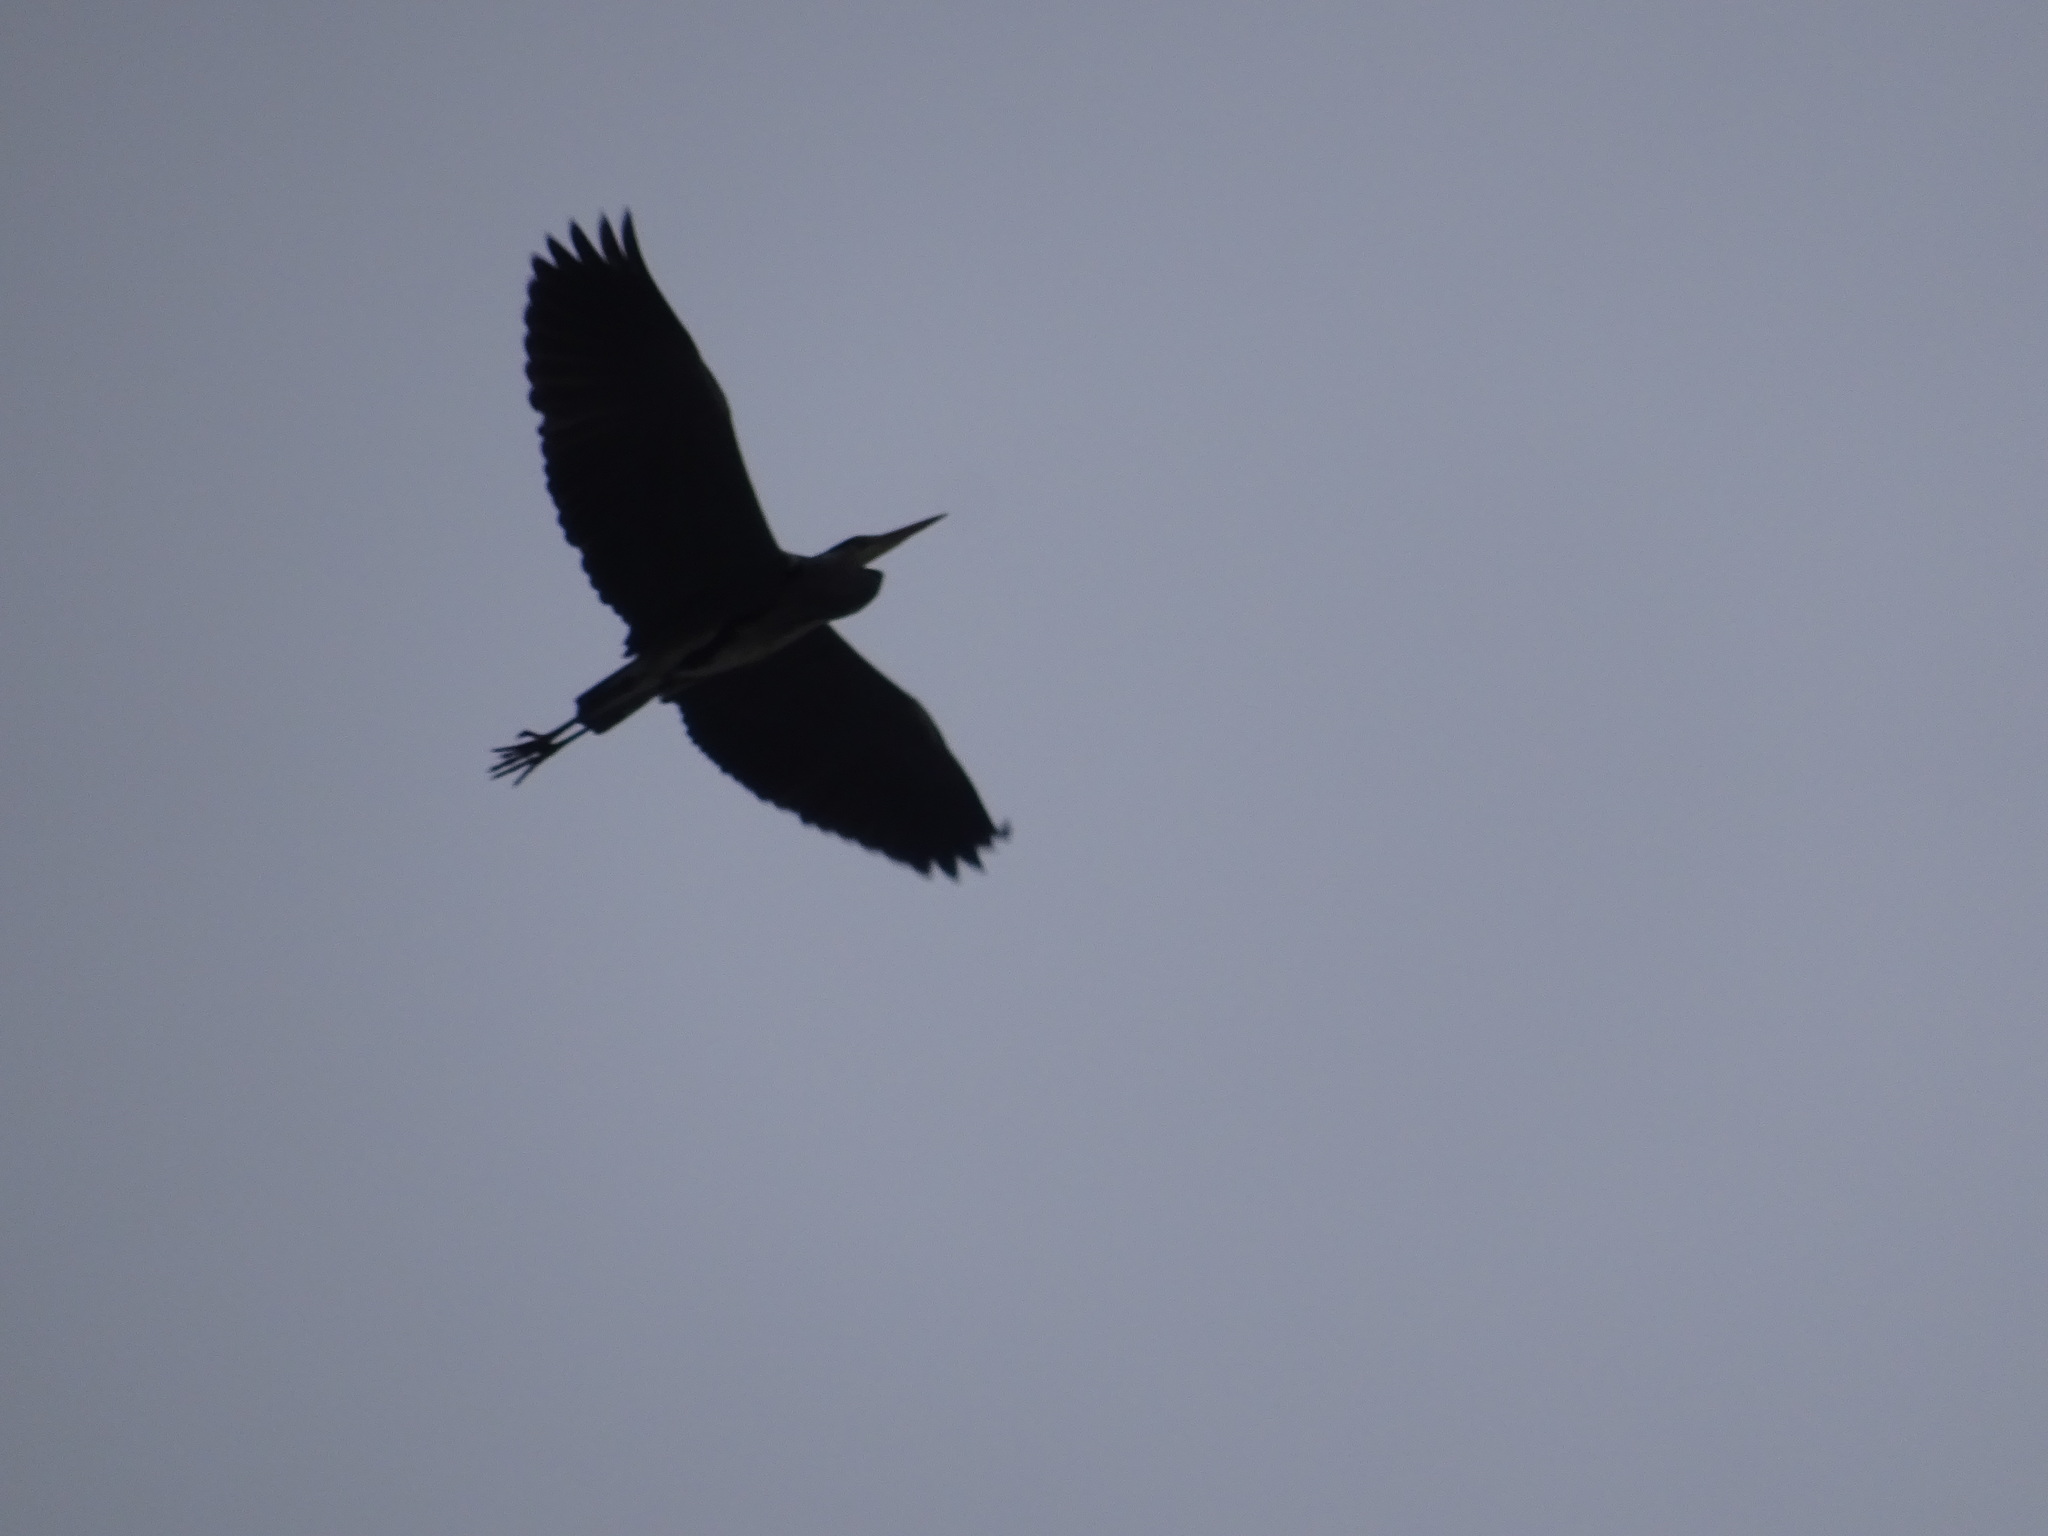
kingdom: Animalia
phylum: Chordata
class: Aves
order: Pelecaniformes
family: Ardeidae
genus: Ardea
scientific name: Ardea cinerea
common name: Grey heron
